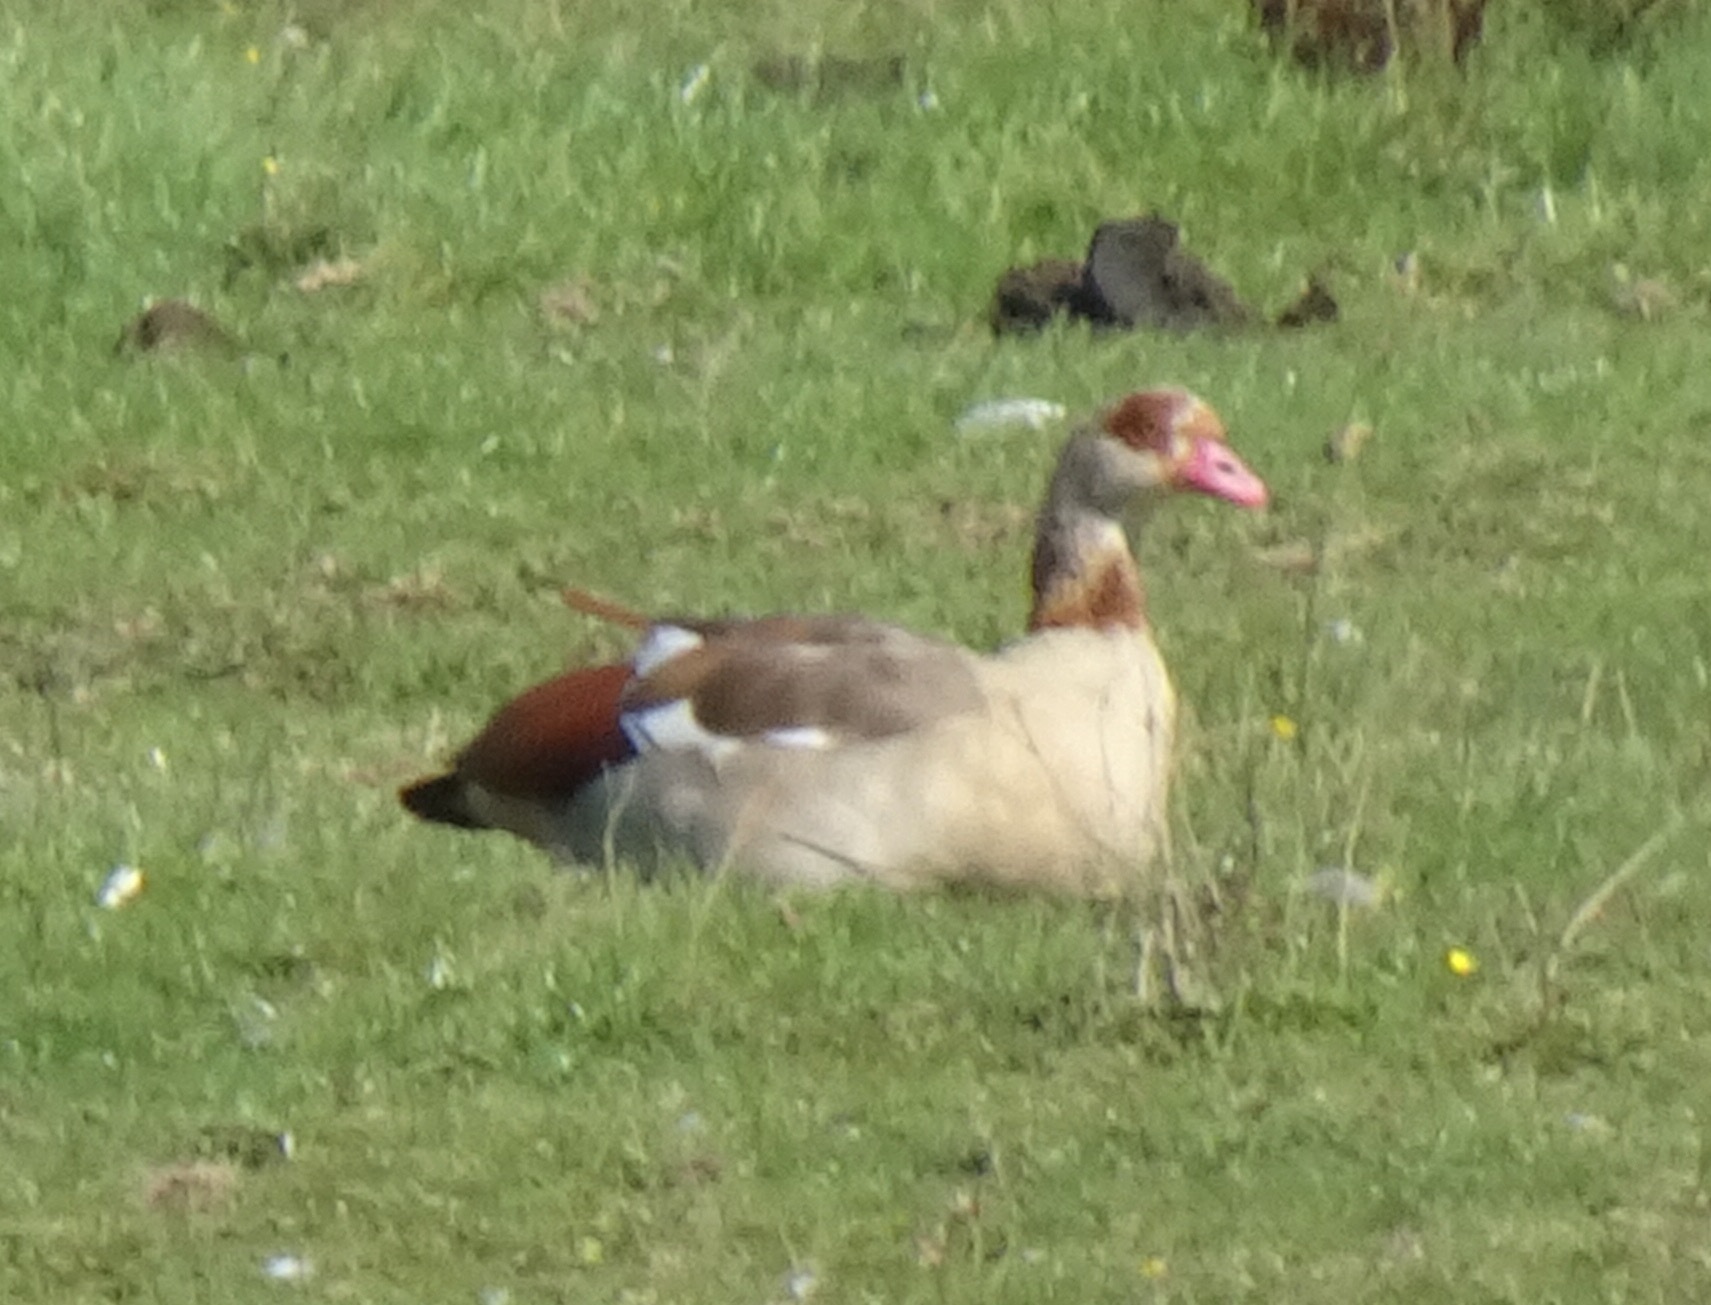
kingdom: Animalia
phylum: Chordata
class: Aves
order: Anseriformes
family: Anatidae
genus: Alopochen
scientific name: Alopochen aegyptiaca
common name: Egyptian goose
